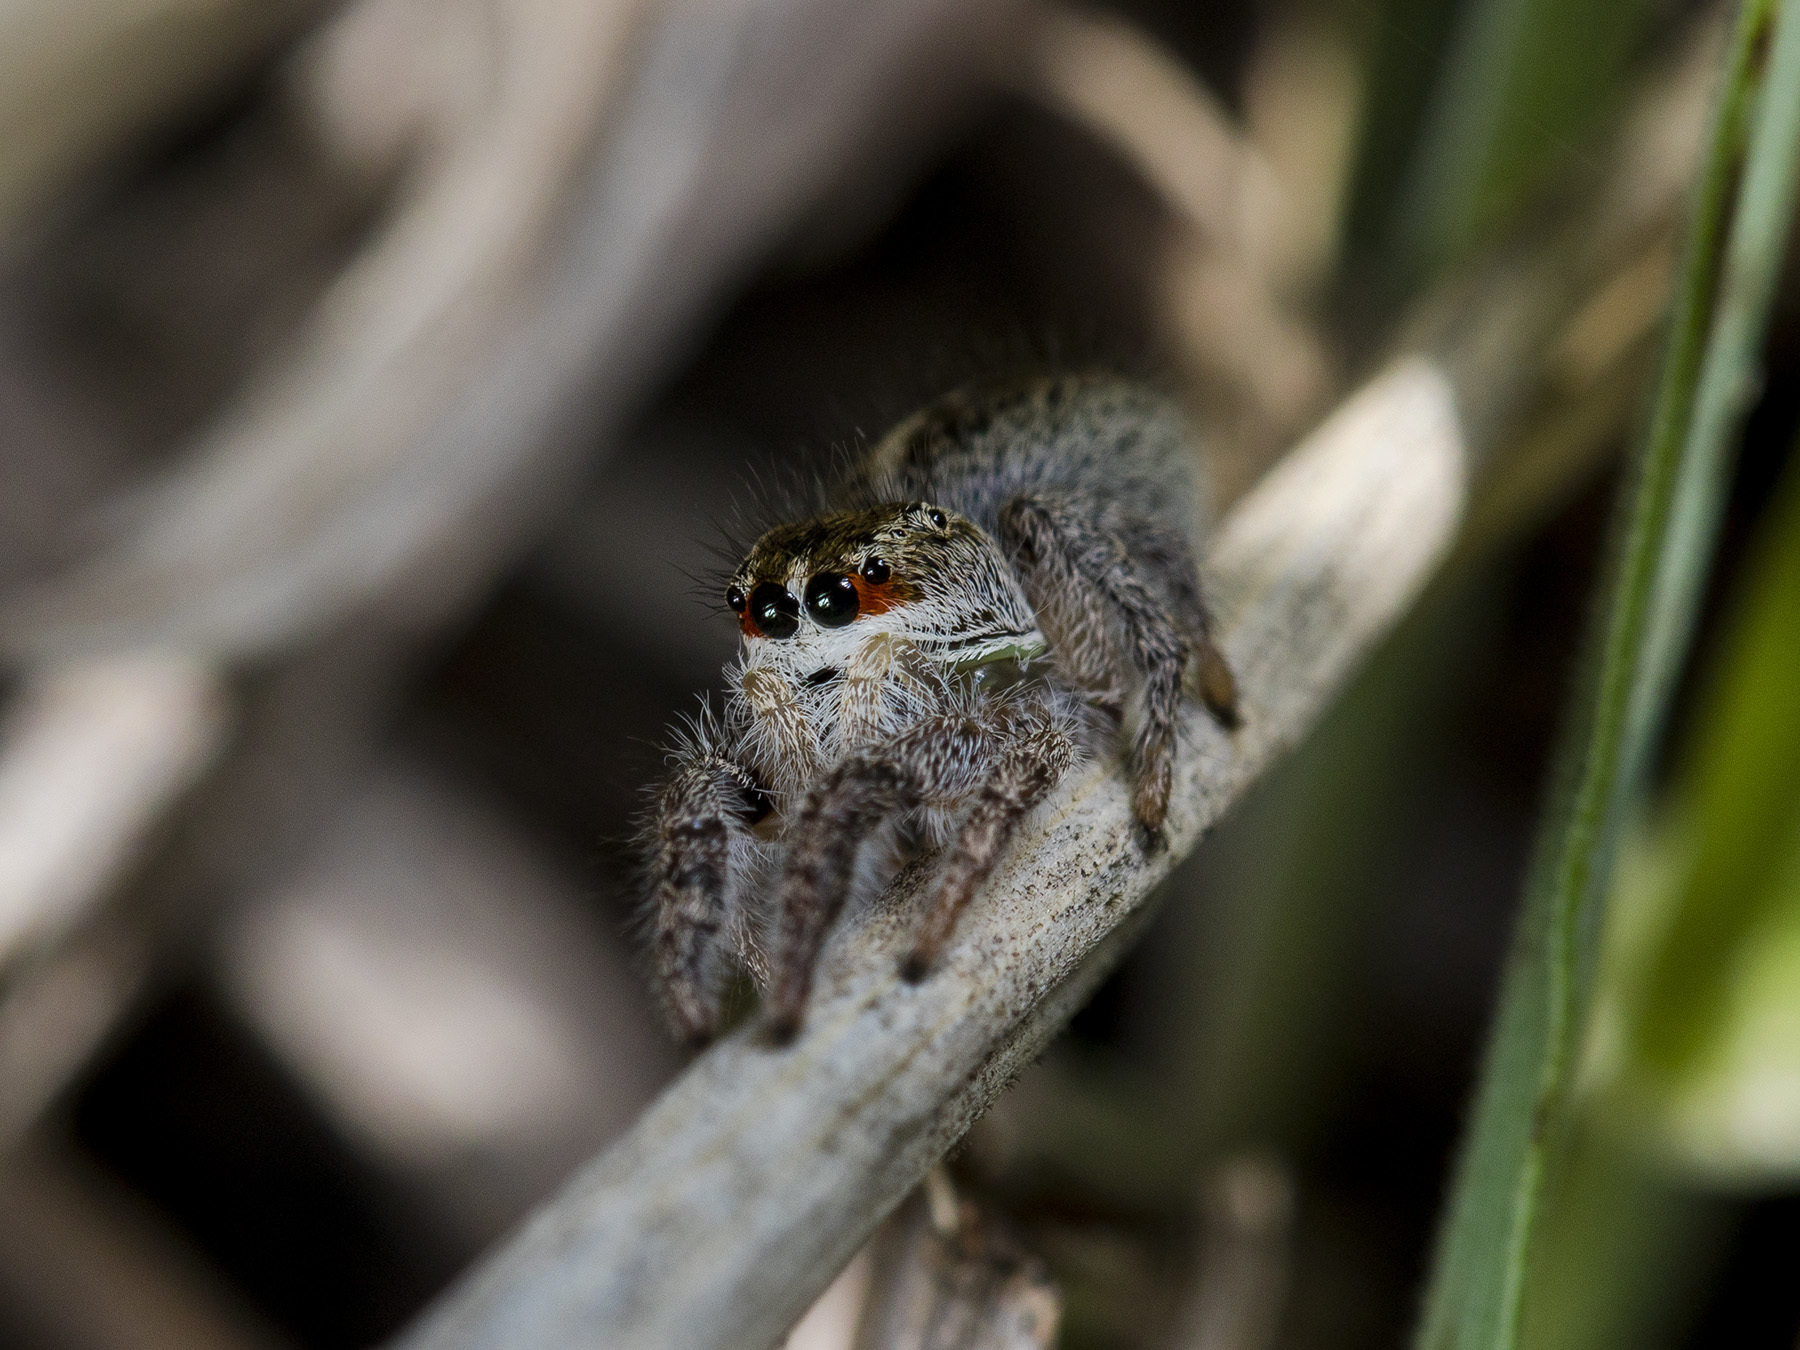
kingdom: Animalia
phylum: Arthropoda
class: Arachnida
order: Araneae
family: Salticidae
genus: Pellenes
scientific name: Pellenes seriatus
